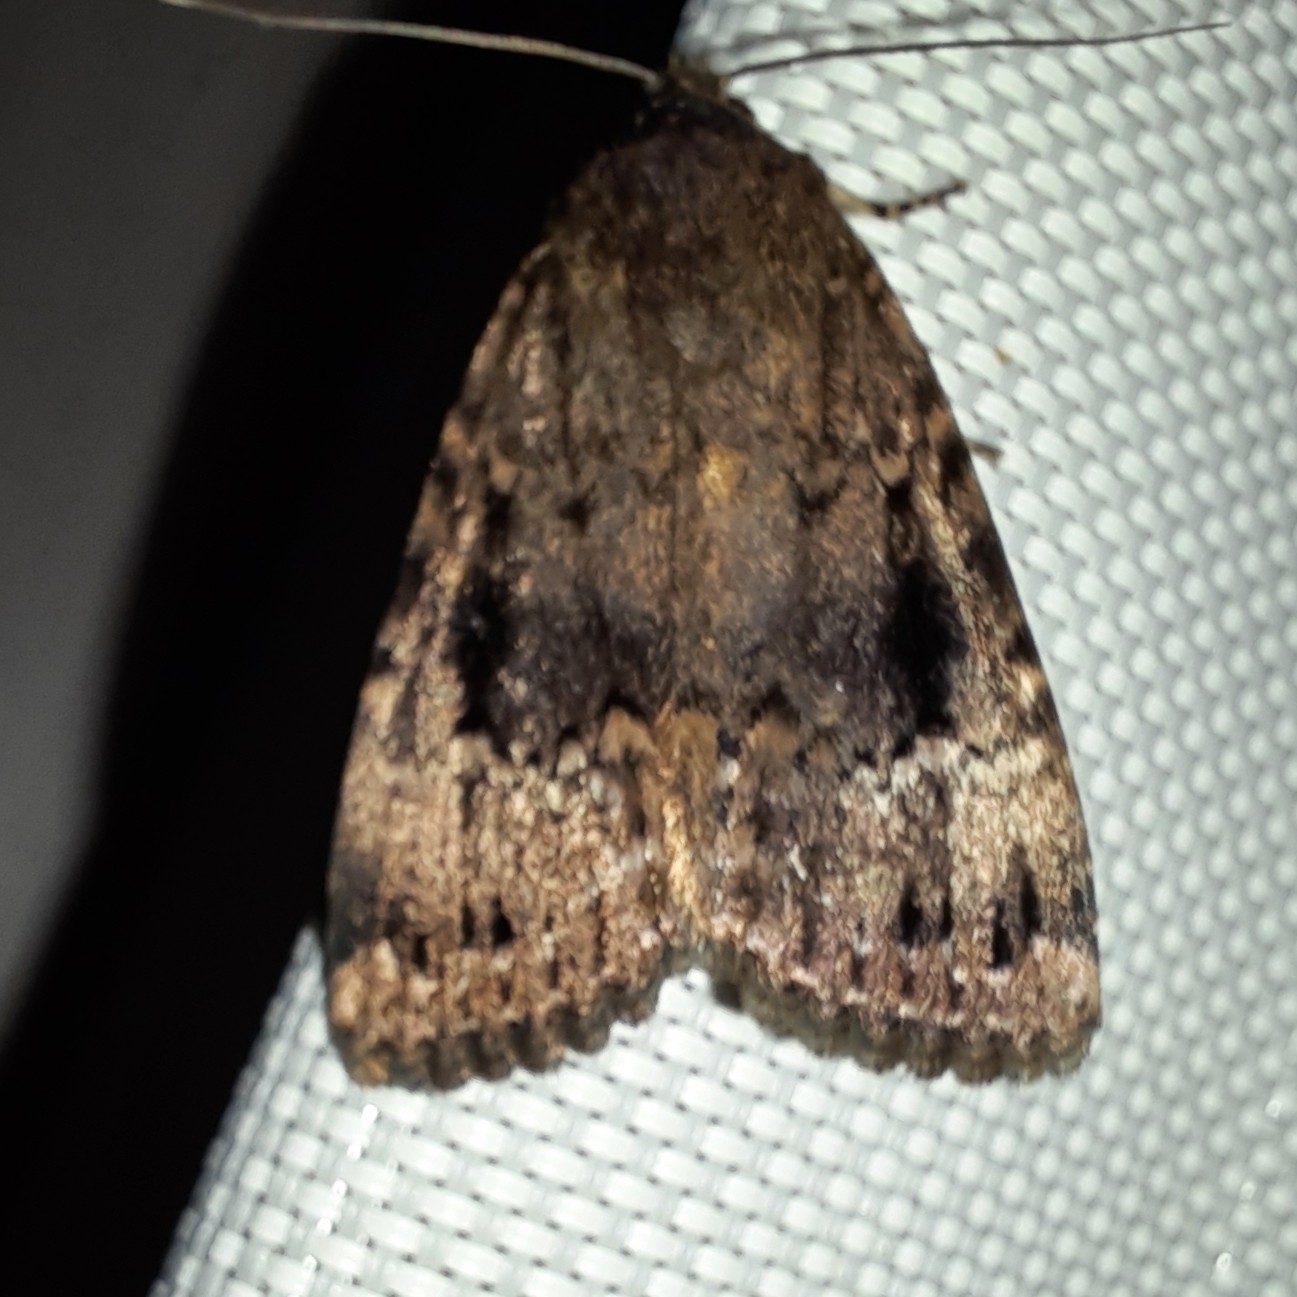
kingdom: Animalia
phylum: Arthropoda
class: Insecta
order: Lepidoptera
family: Noctuidae
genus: Amphipyra
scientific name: Amphipyra pyramidea
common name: Copper underwing
